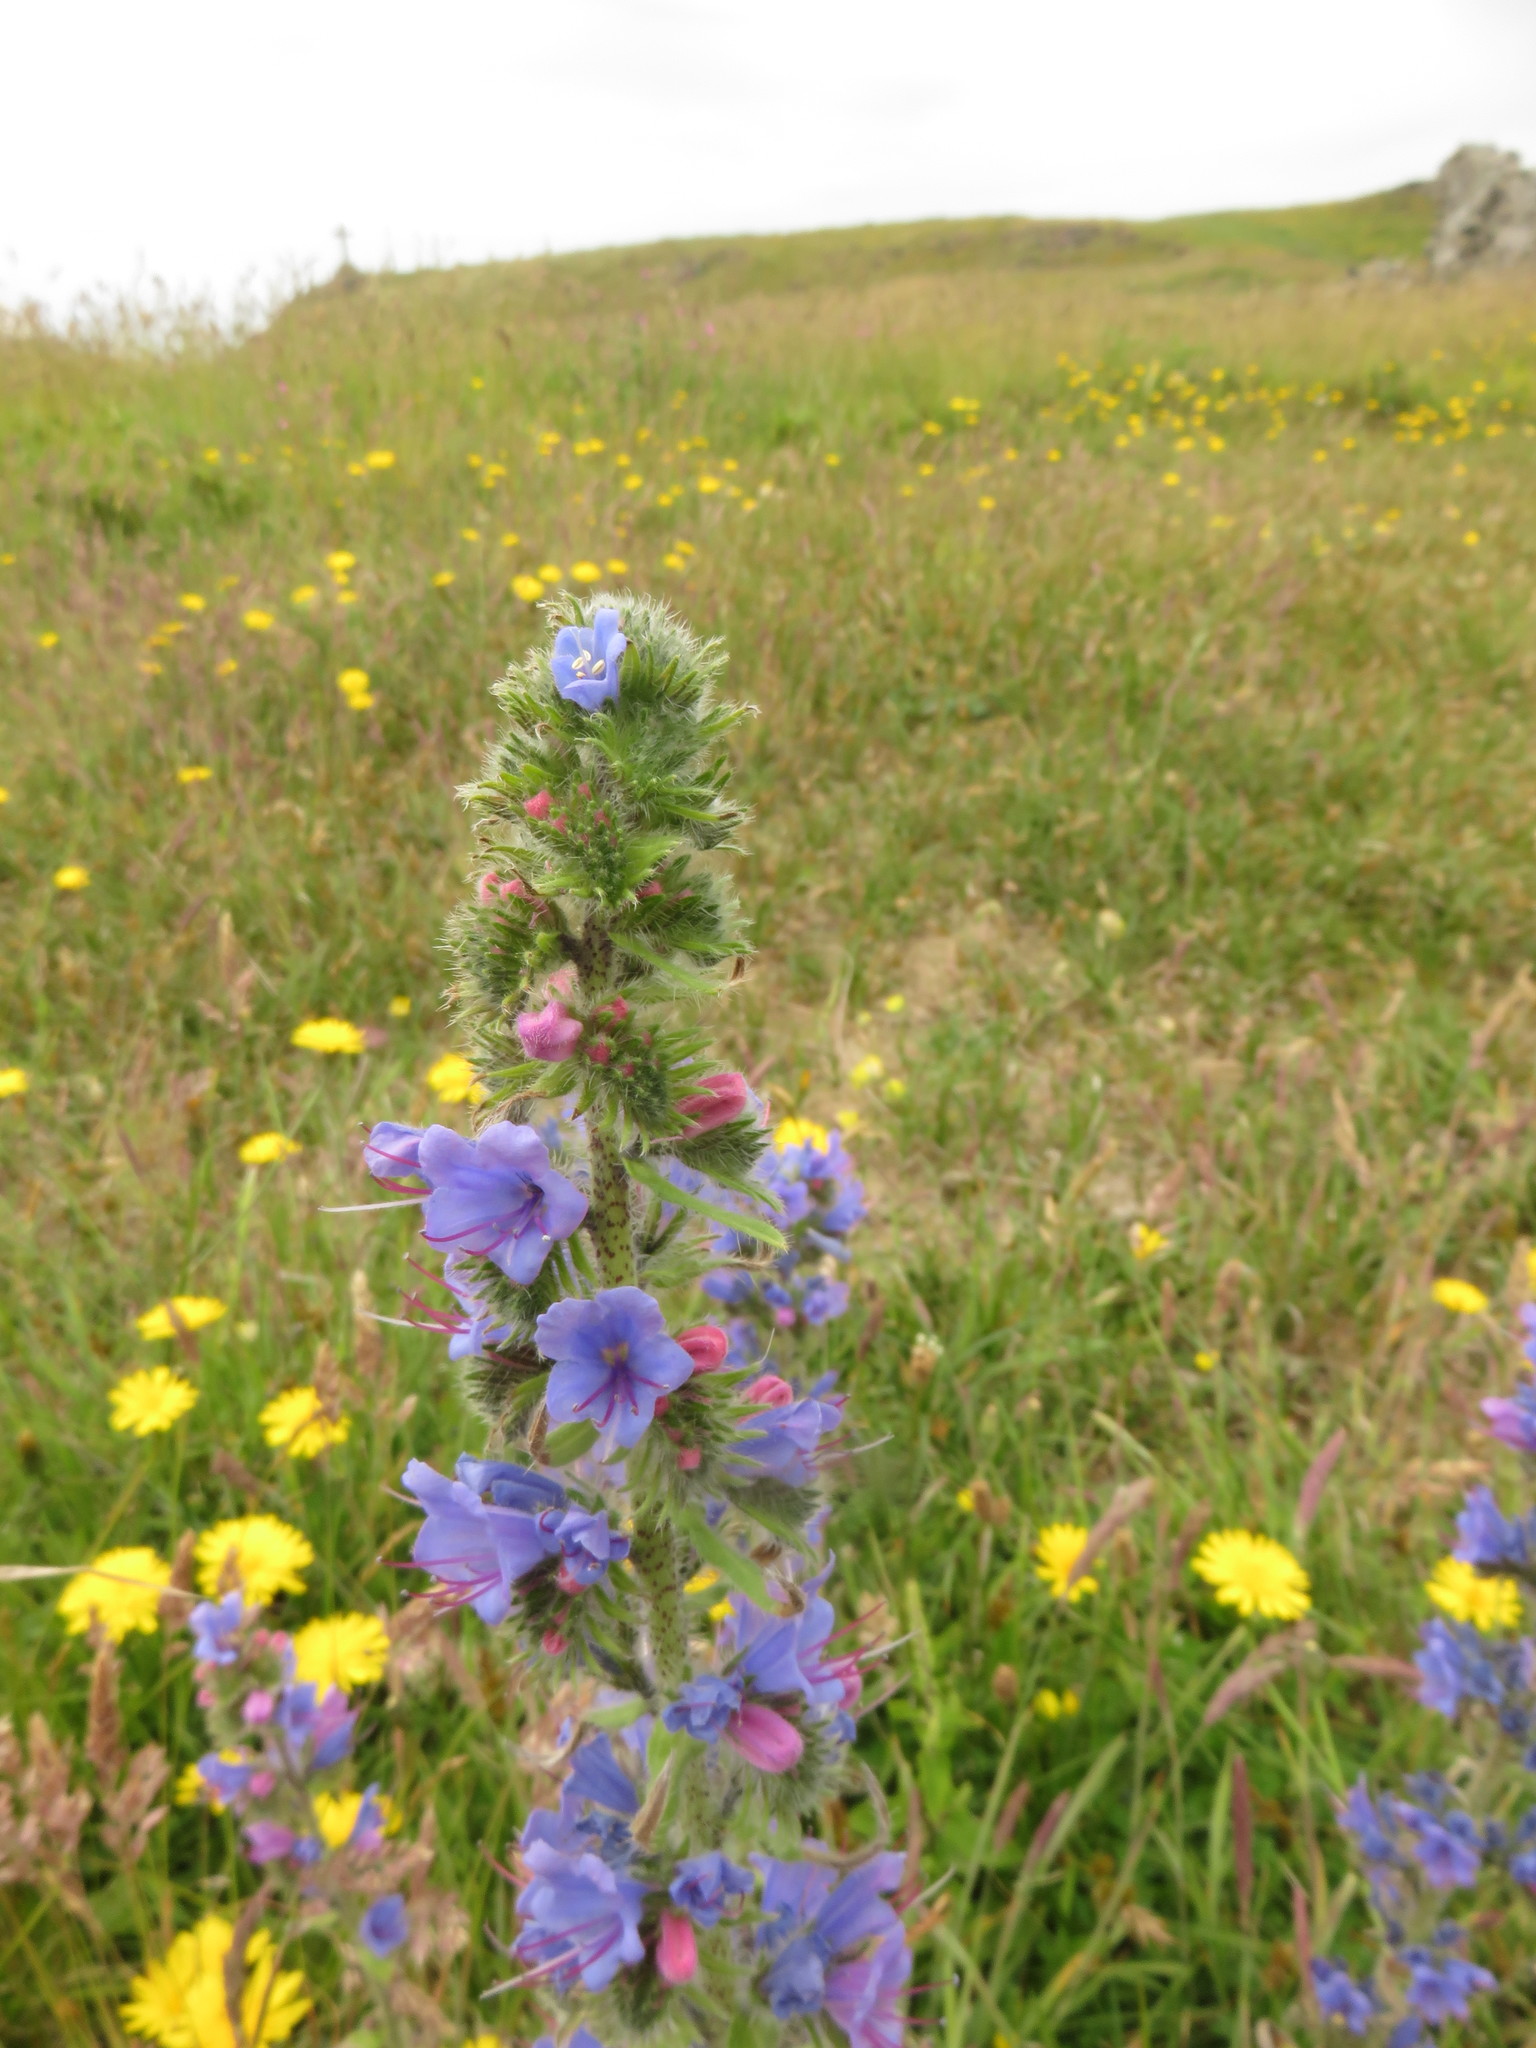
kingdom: Plantae
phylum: Tracheophyta
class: Magnoliopsida
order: Boraginales
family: Boraginaceae
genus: Echium
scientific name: Echium vulgare
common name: Common viper's bugloss
